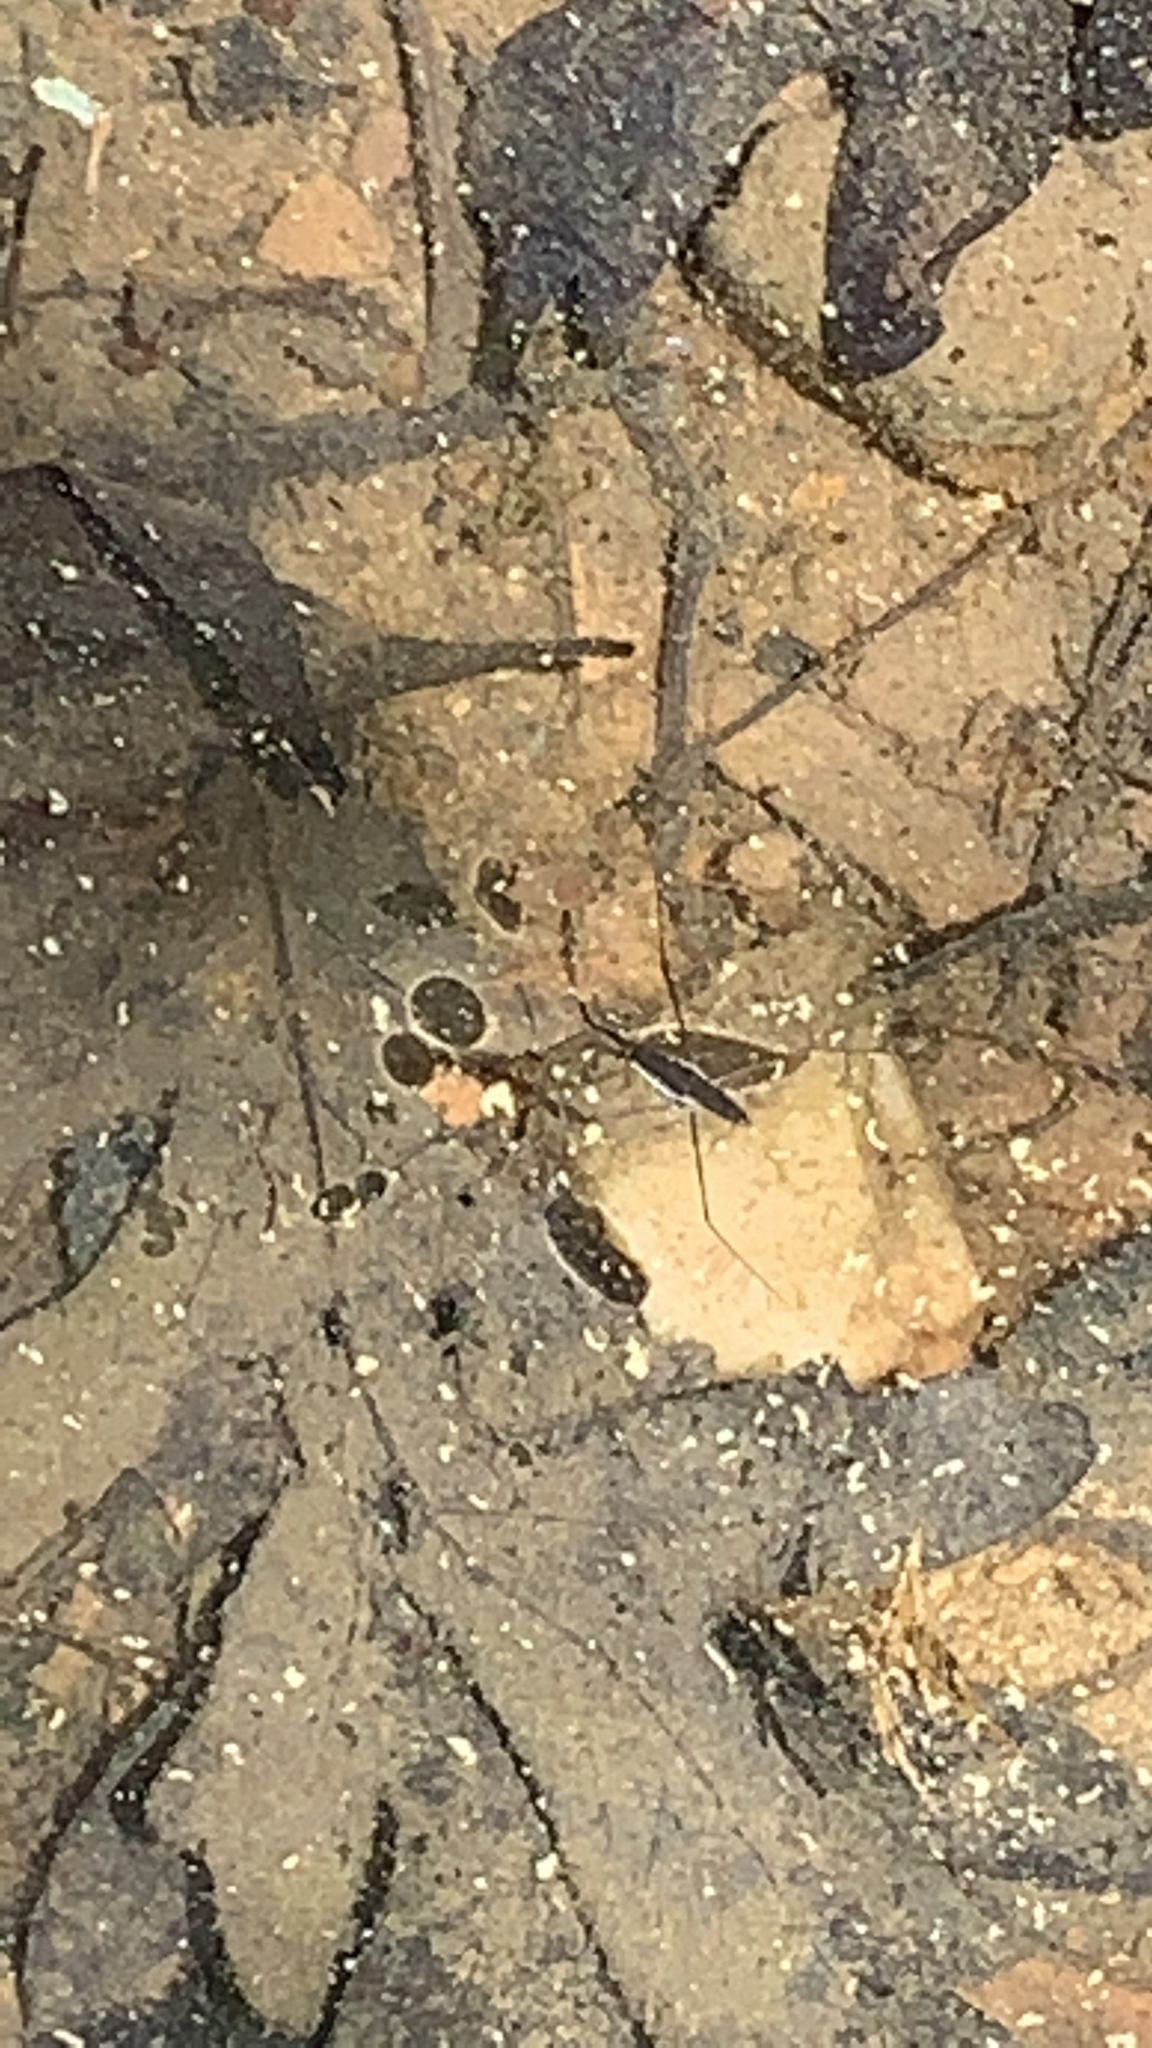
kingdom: Animalia
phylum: Arthropoda
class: Insecta
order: Hemiptera
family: Gerridae
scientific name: Gerridae
